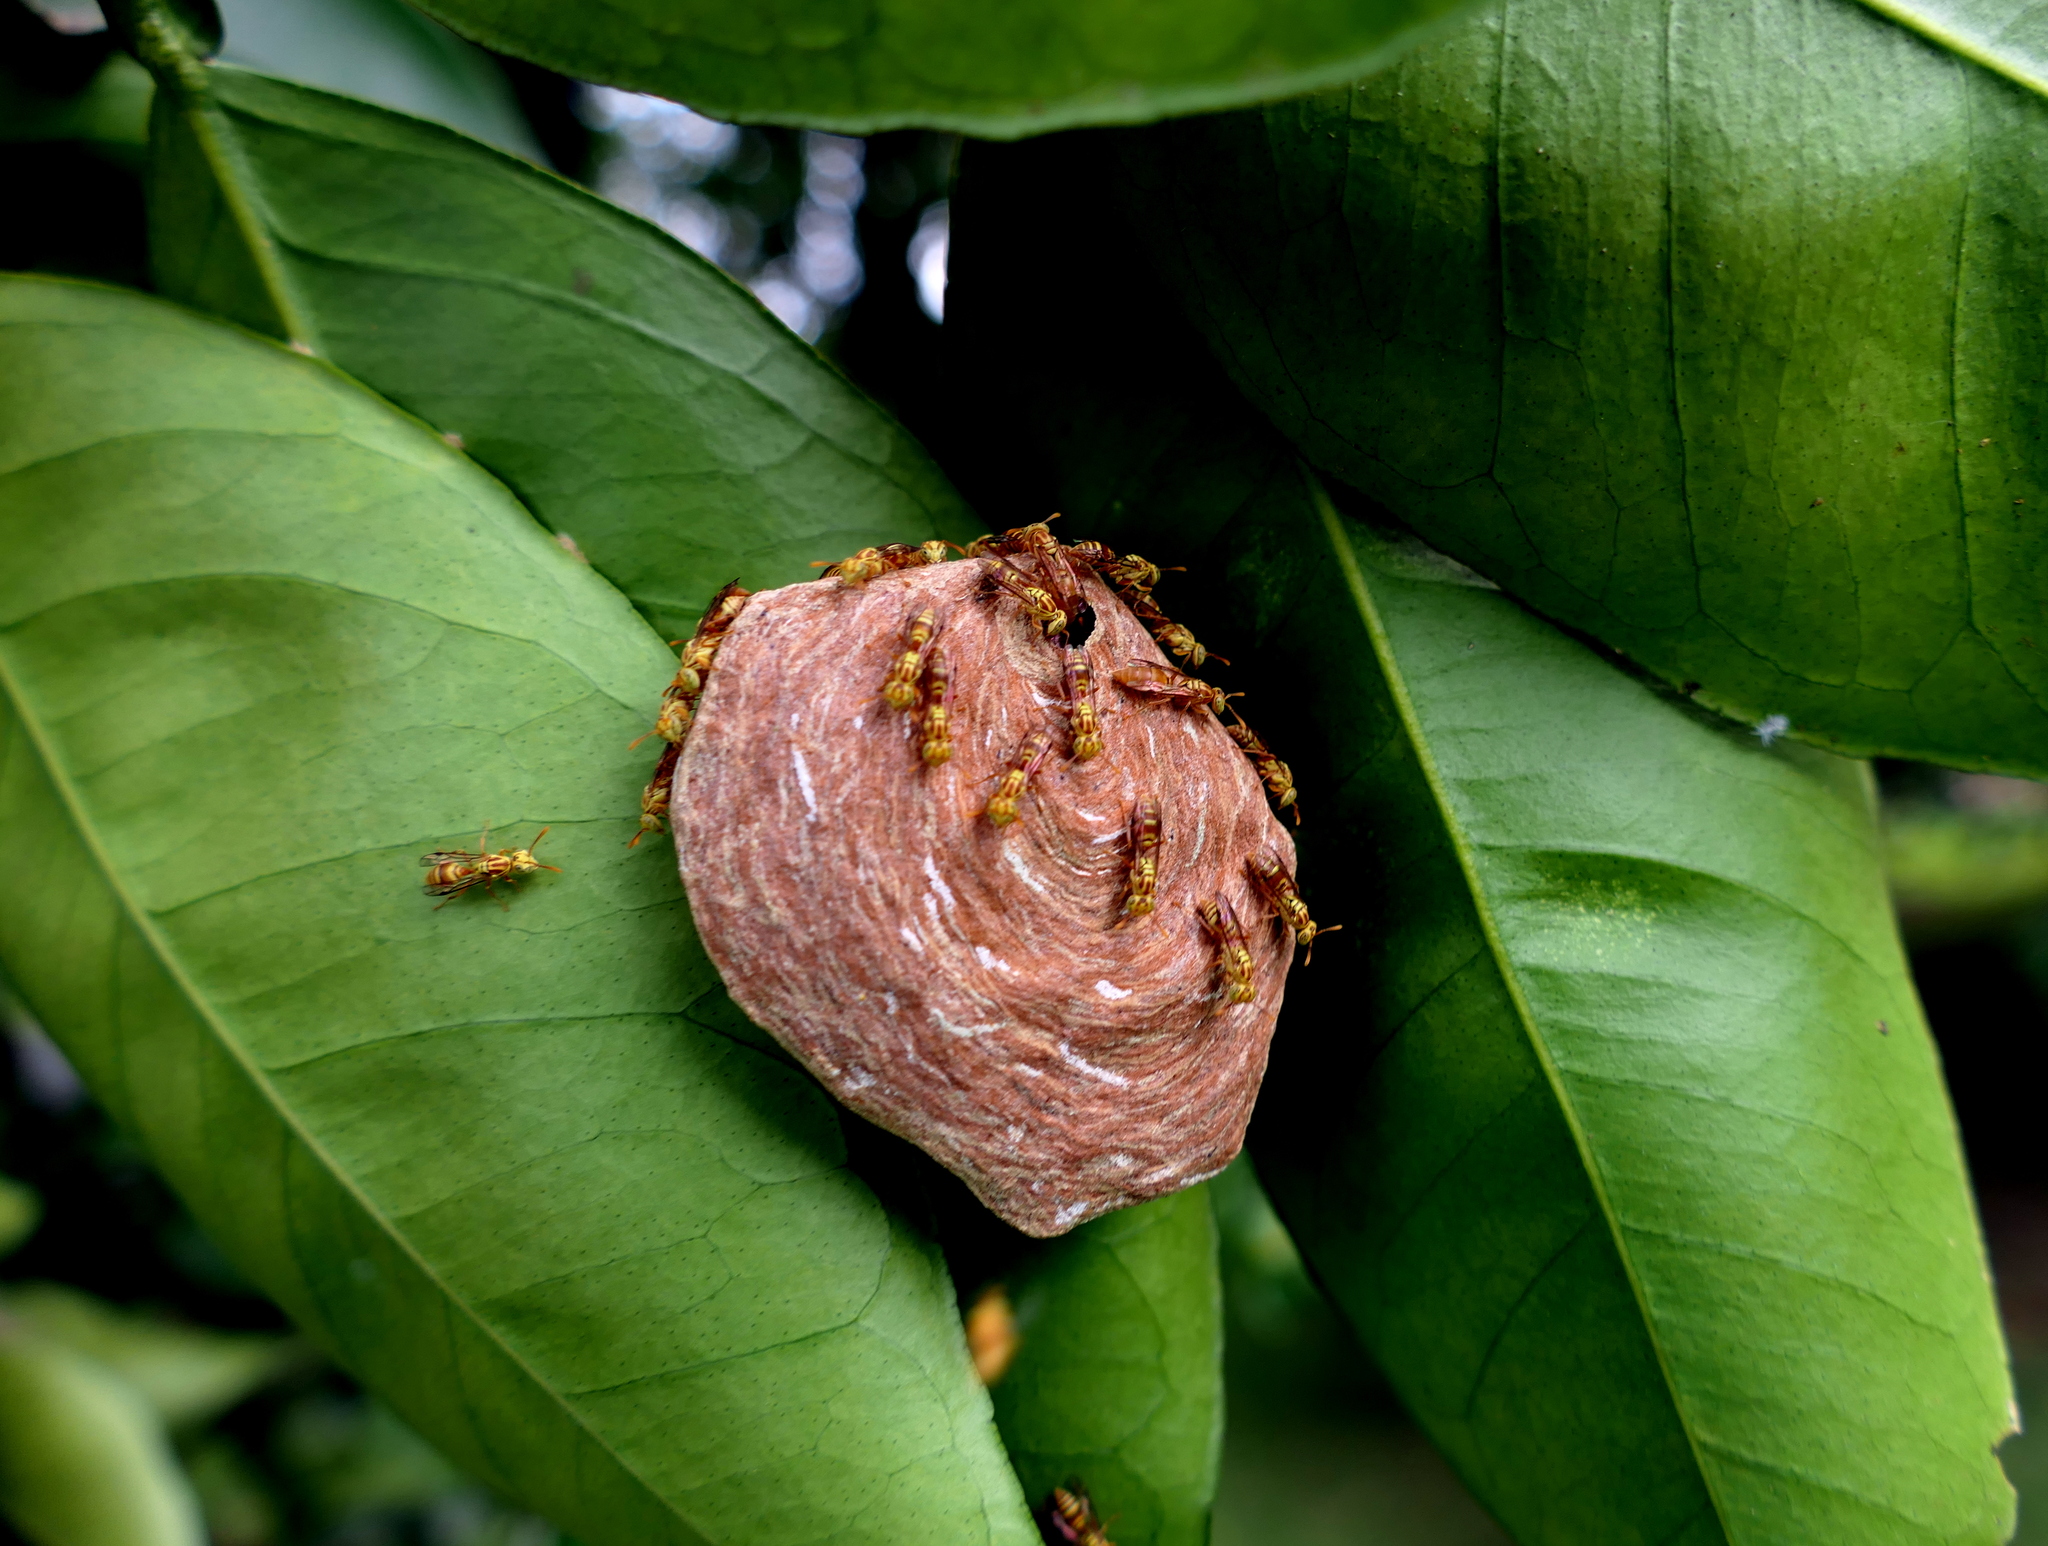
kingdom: Animalia
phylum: Arthropoda
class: Insecta
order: Hymenoptera
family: Vespidae
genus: Protopolybia
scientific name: Protopolybia potiguara
